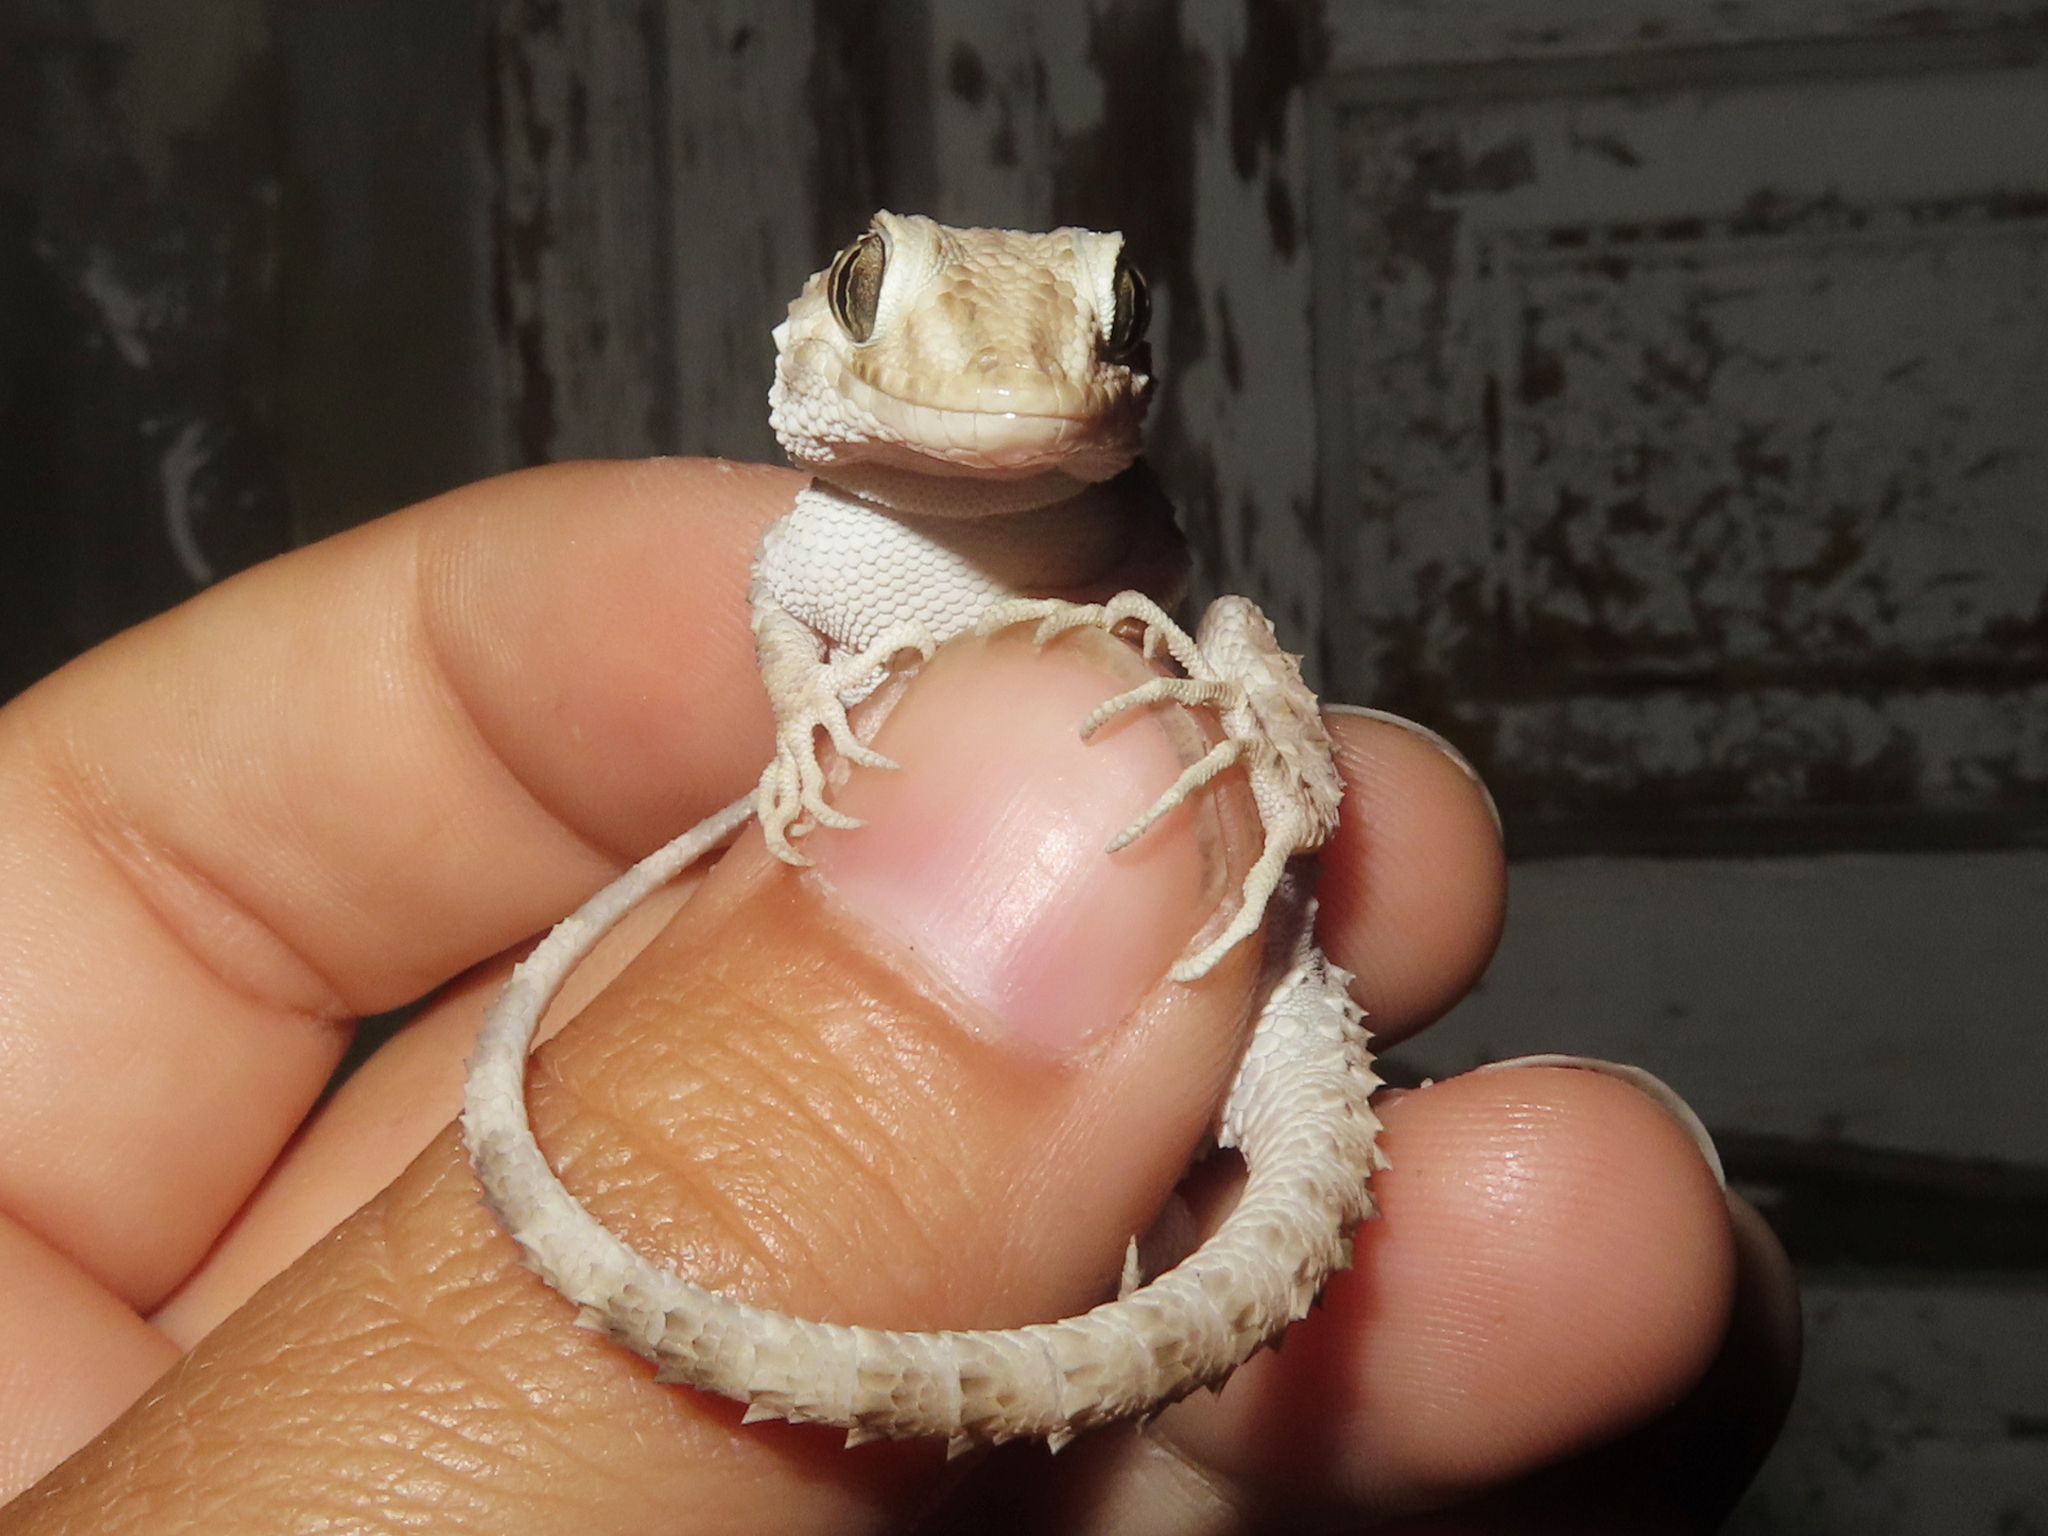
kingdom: Animalia
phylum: Chordata
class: Squamata
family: Gekkonidae
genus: Tenuidactylus
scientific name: Tenuidactylus caspius
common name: Caspian bent-toed gecko
